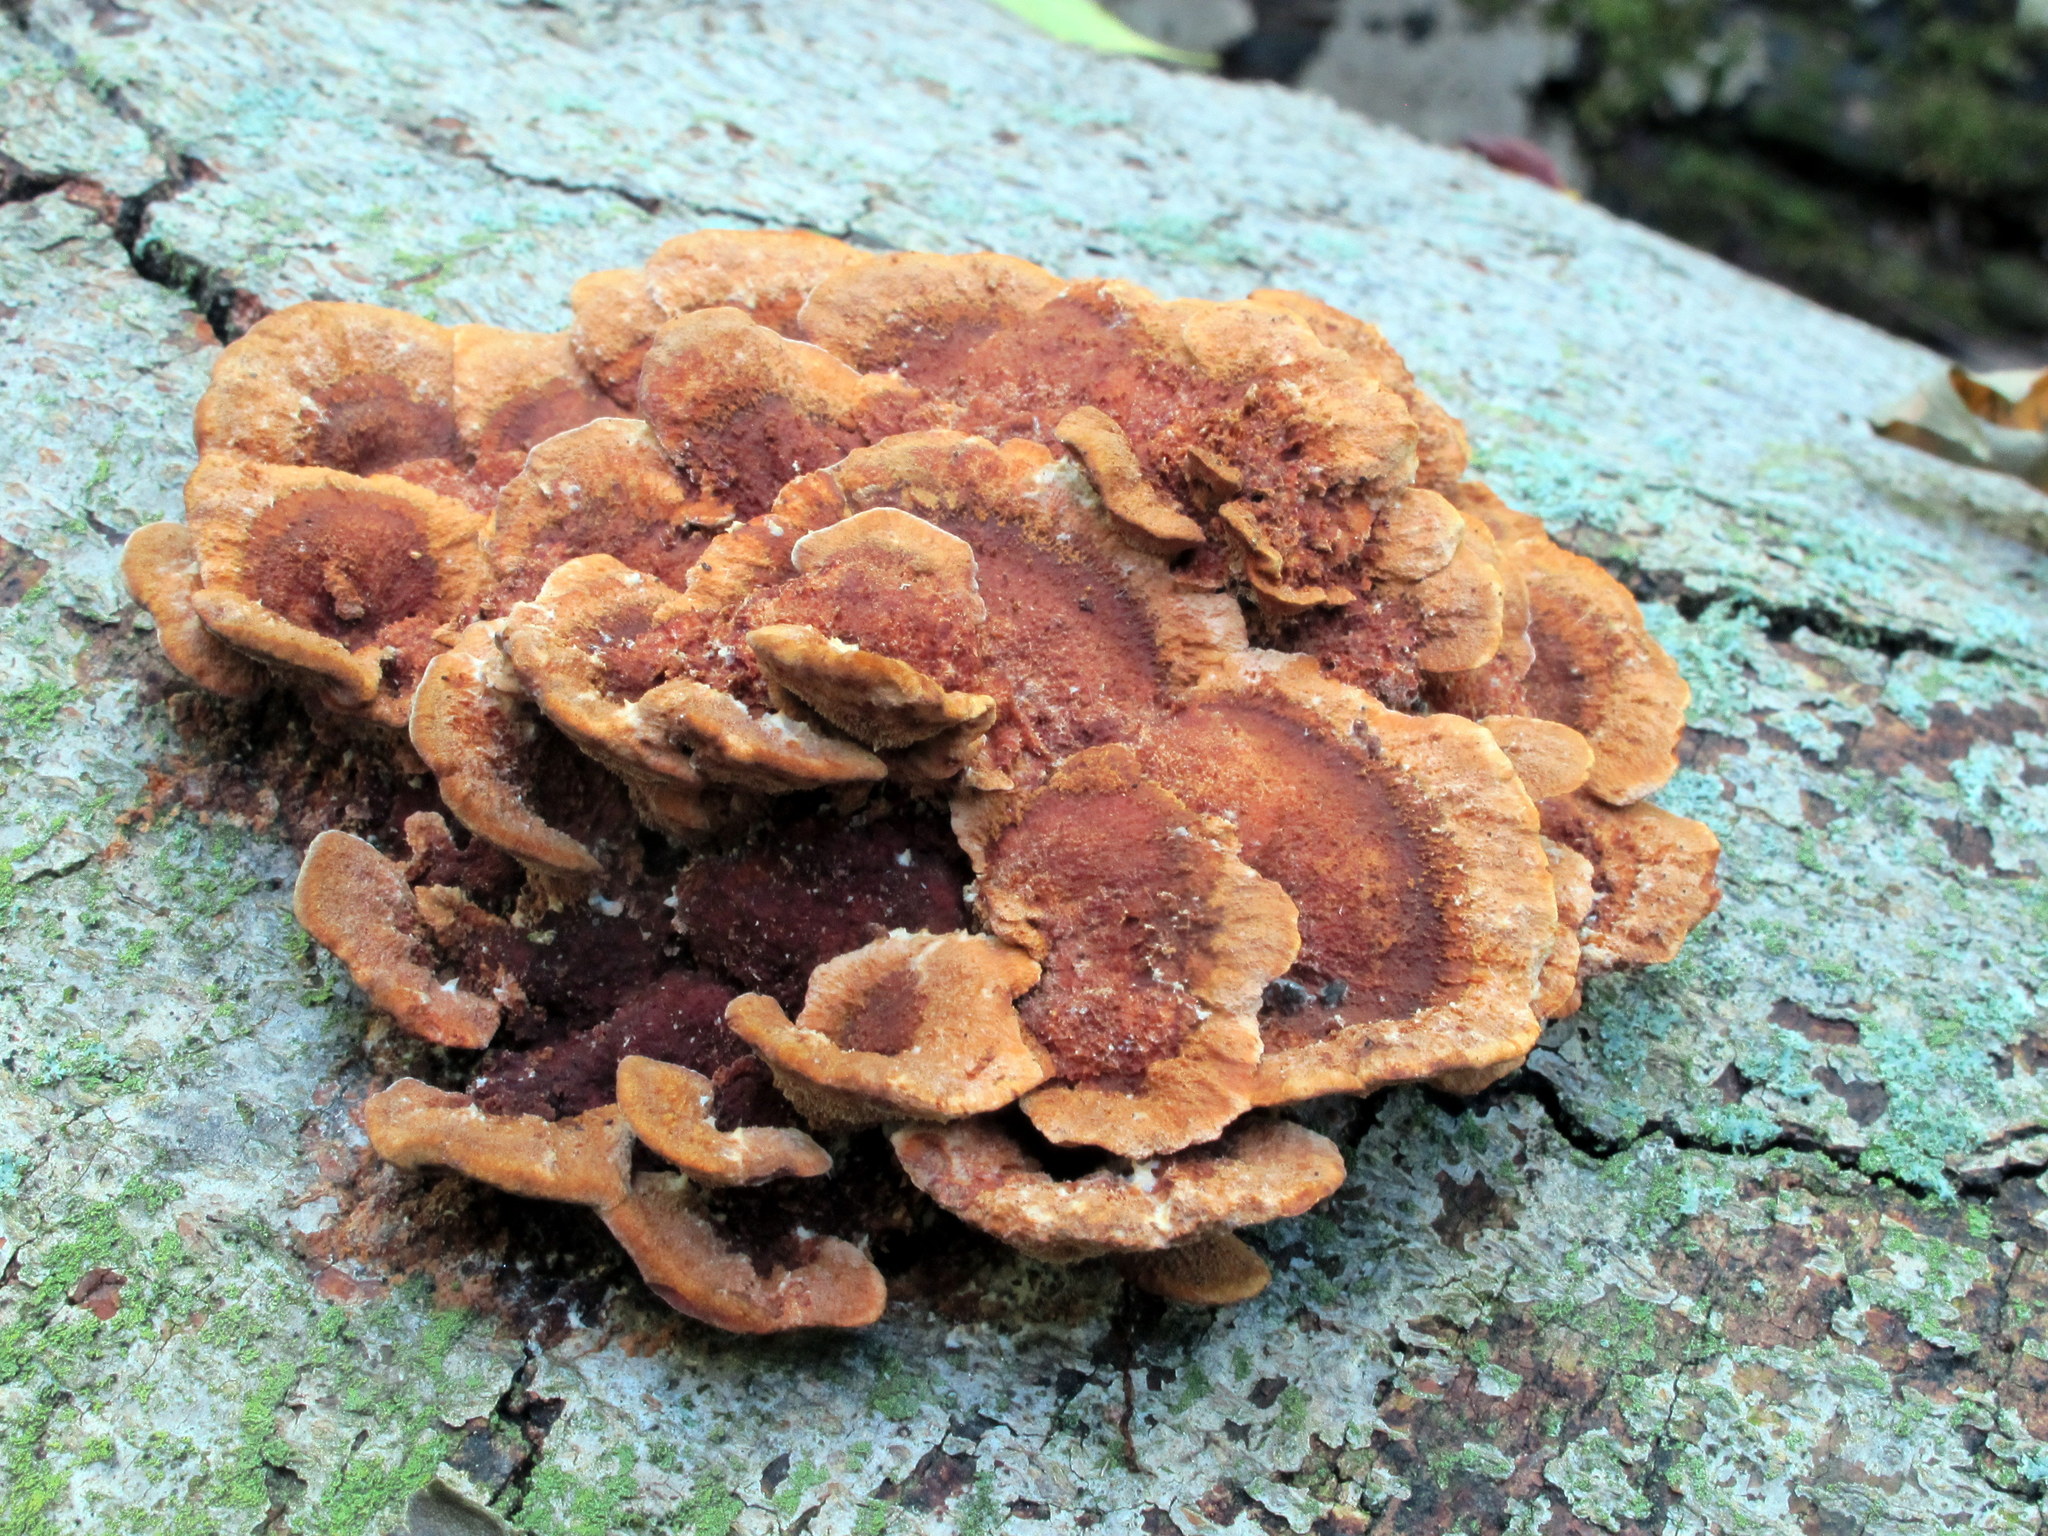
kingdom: Fungi
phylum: Basidiomycota
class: Agaricomycetes
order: Hymenochaetales
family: Hymenochaetaceae
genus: Phellinus
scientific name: Phellinus gilvus
